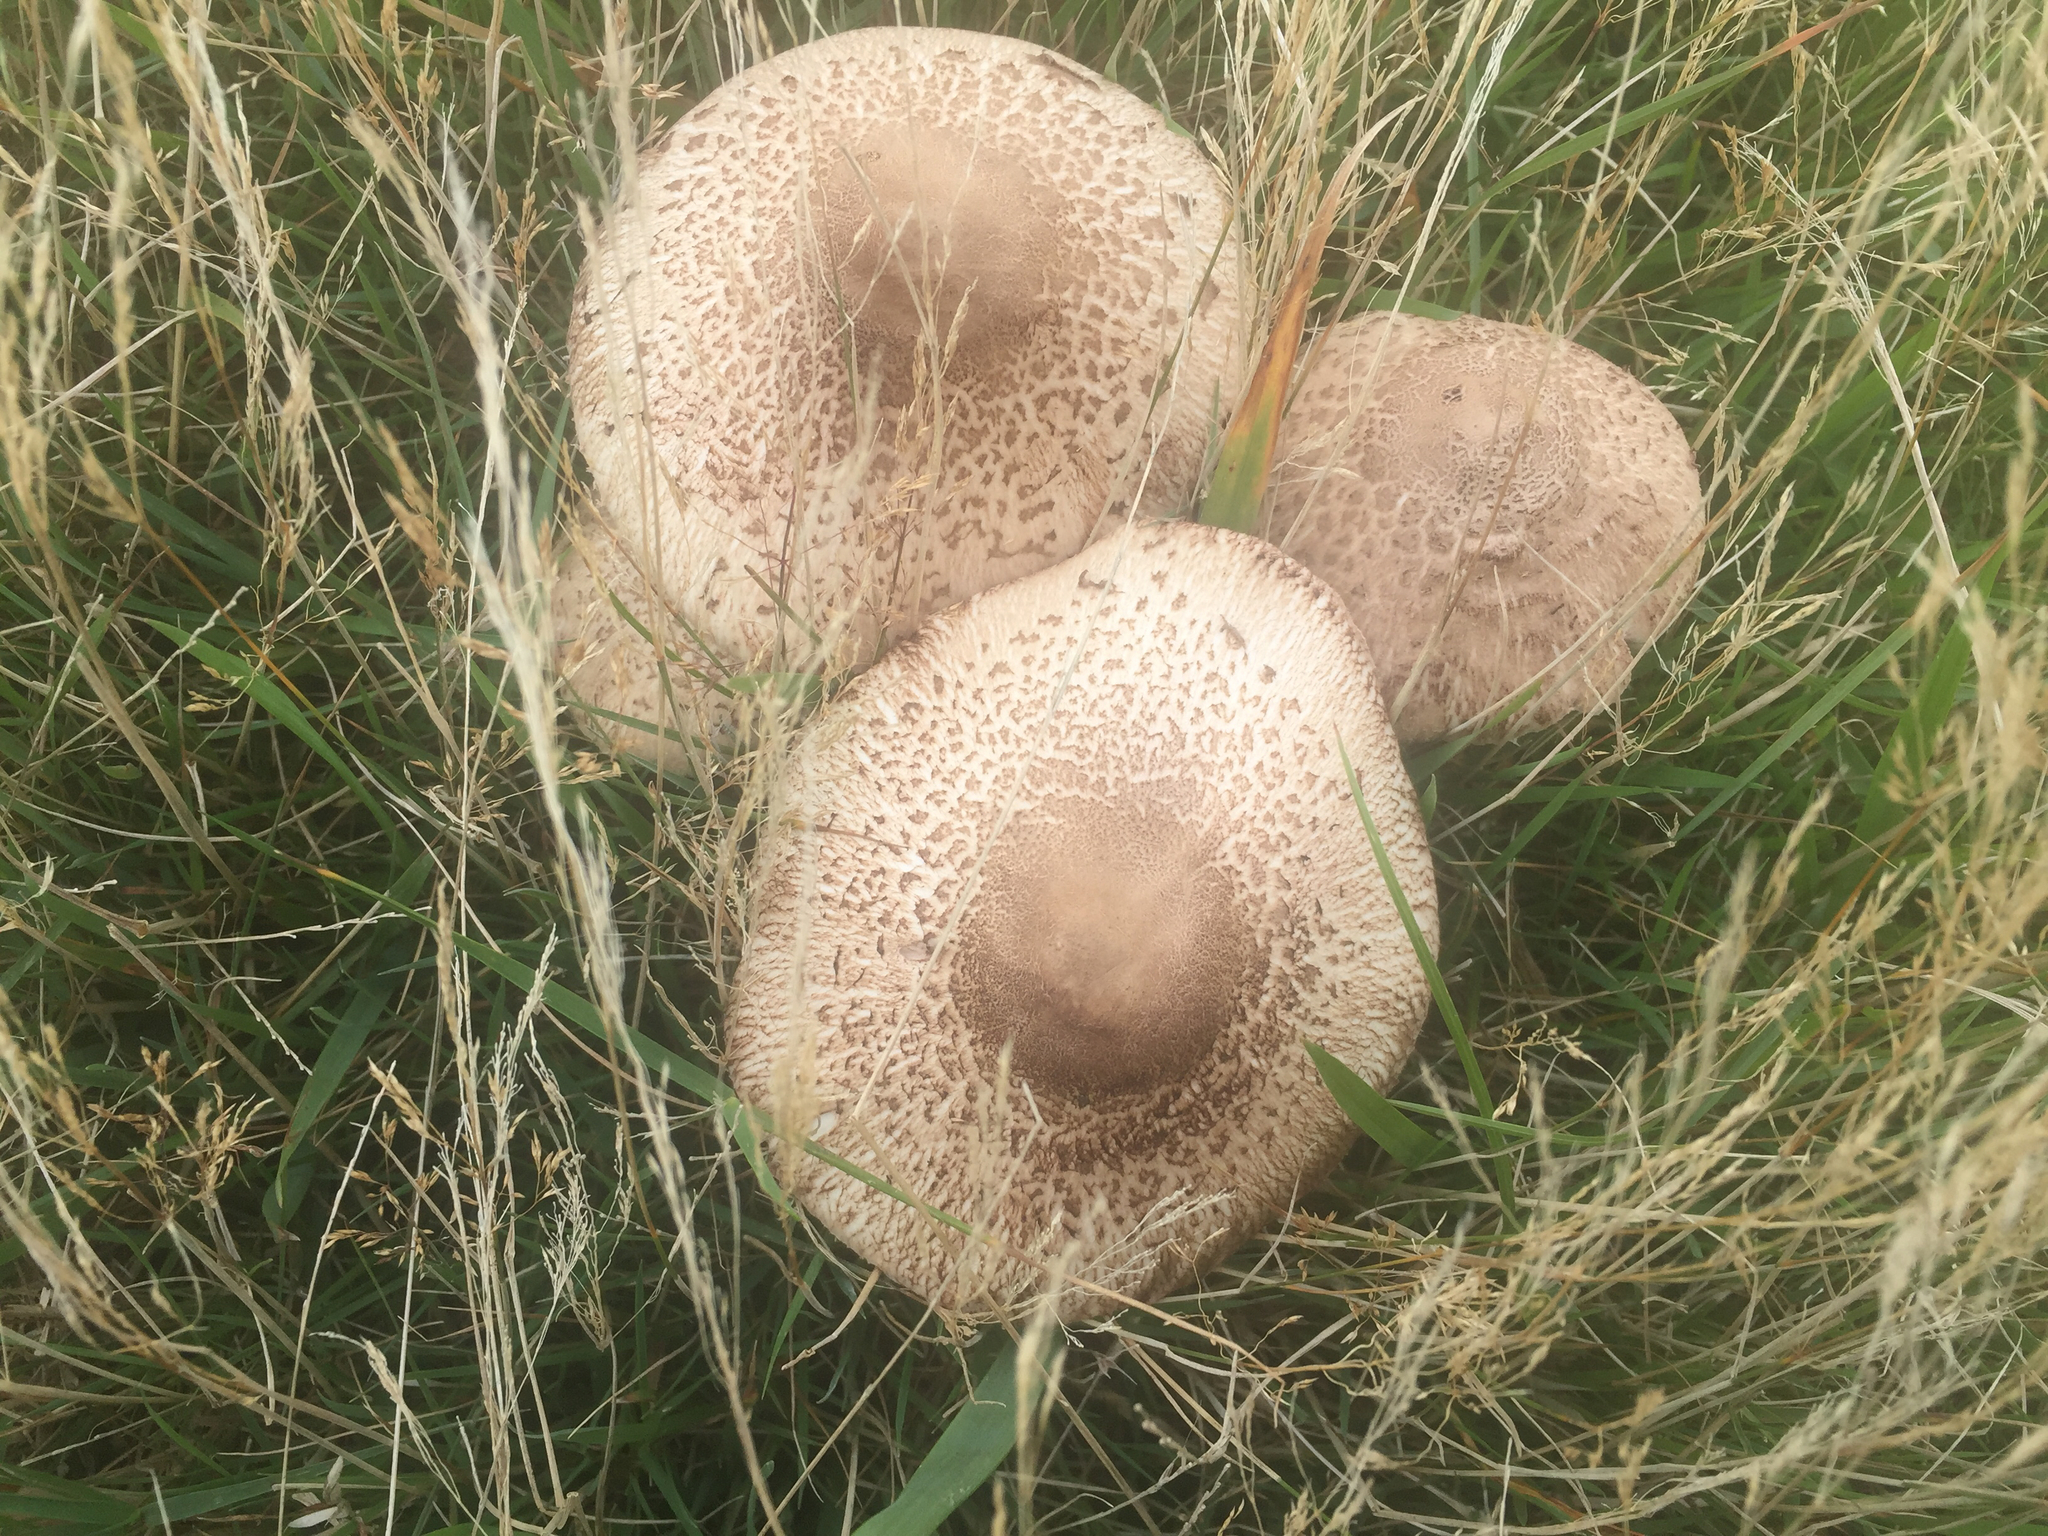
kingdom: Fungi
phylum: Basidiomycota
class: Agaricomycetes
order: Agaricales
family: Agaricaceae
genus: Macrolepiota
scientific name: Macrolepiota clelandii
